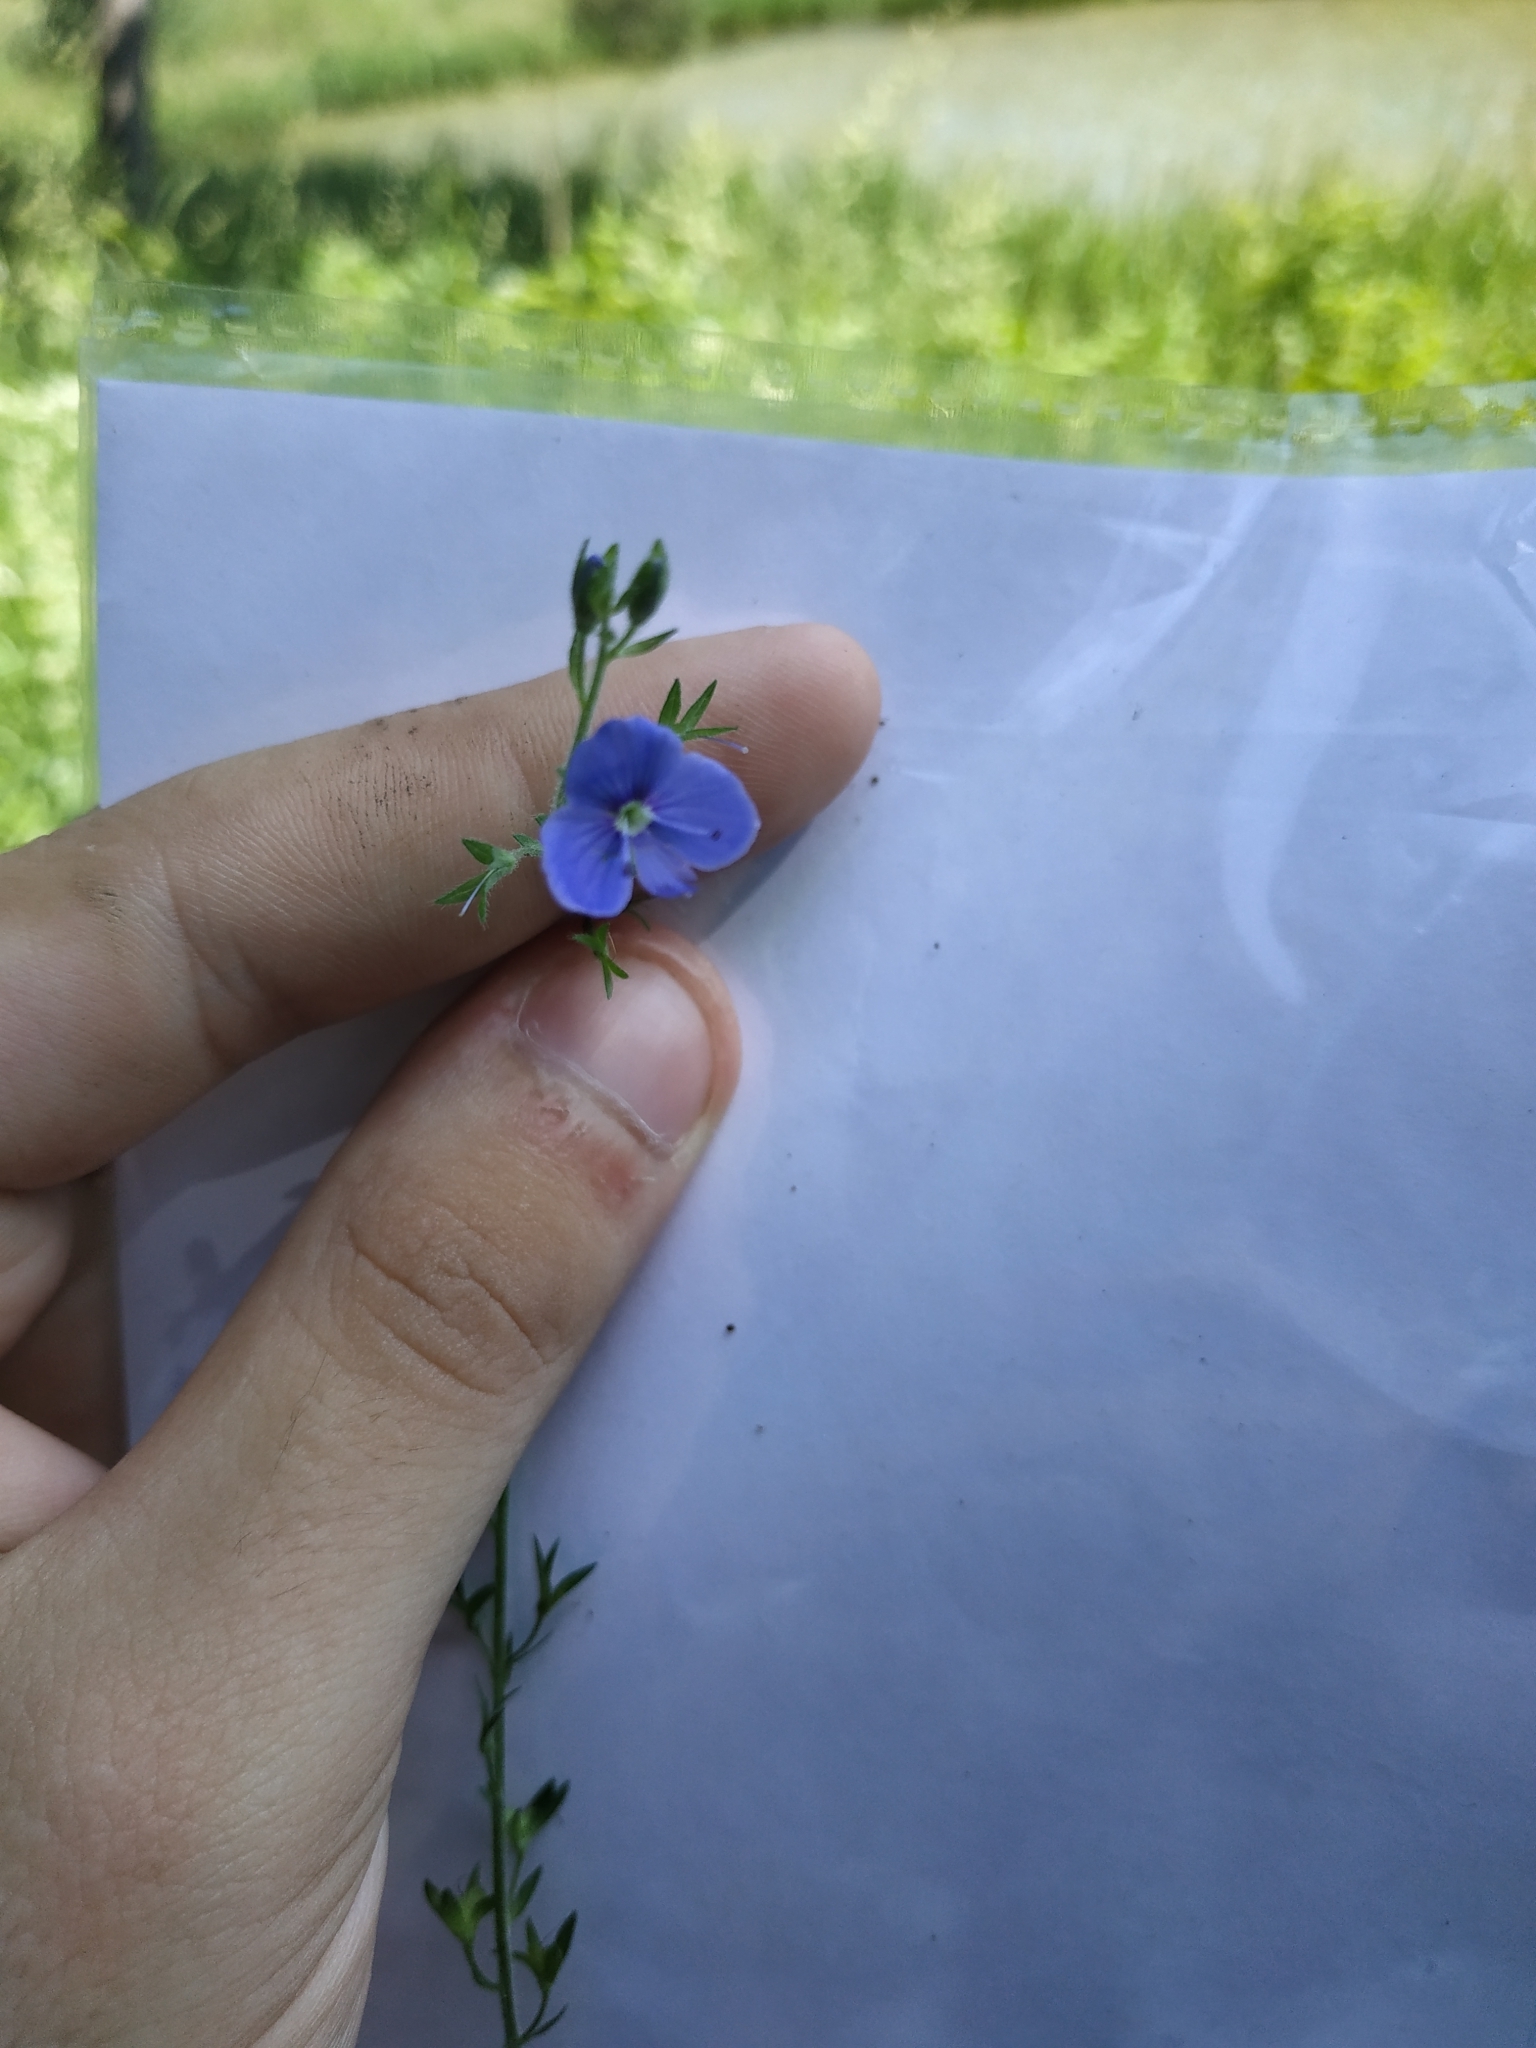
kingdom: Plantae
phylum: Tracheophyta
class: Magnoliopsida
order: Lamiales
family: Plantaginaceae
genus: Veronica
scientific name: Veronica chamaedrys
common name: Germander speedwell
